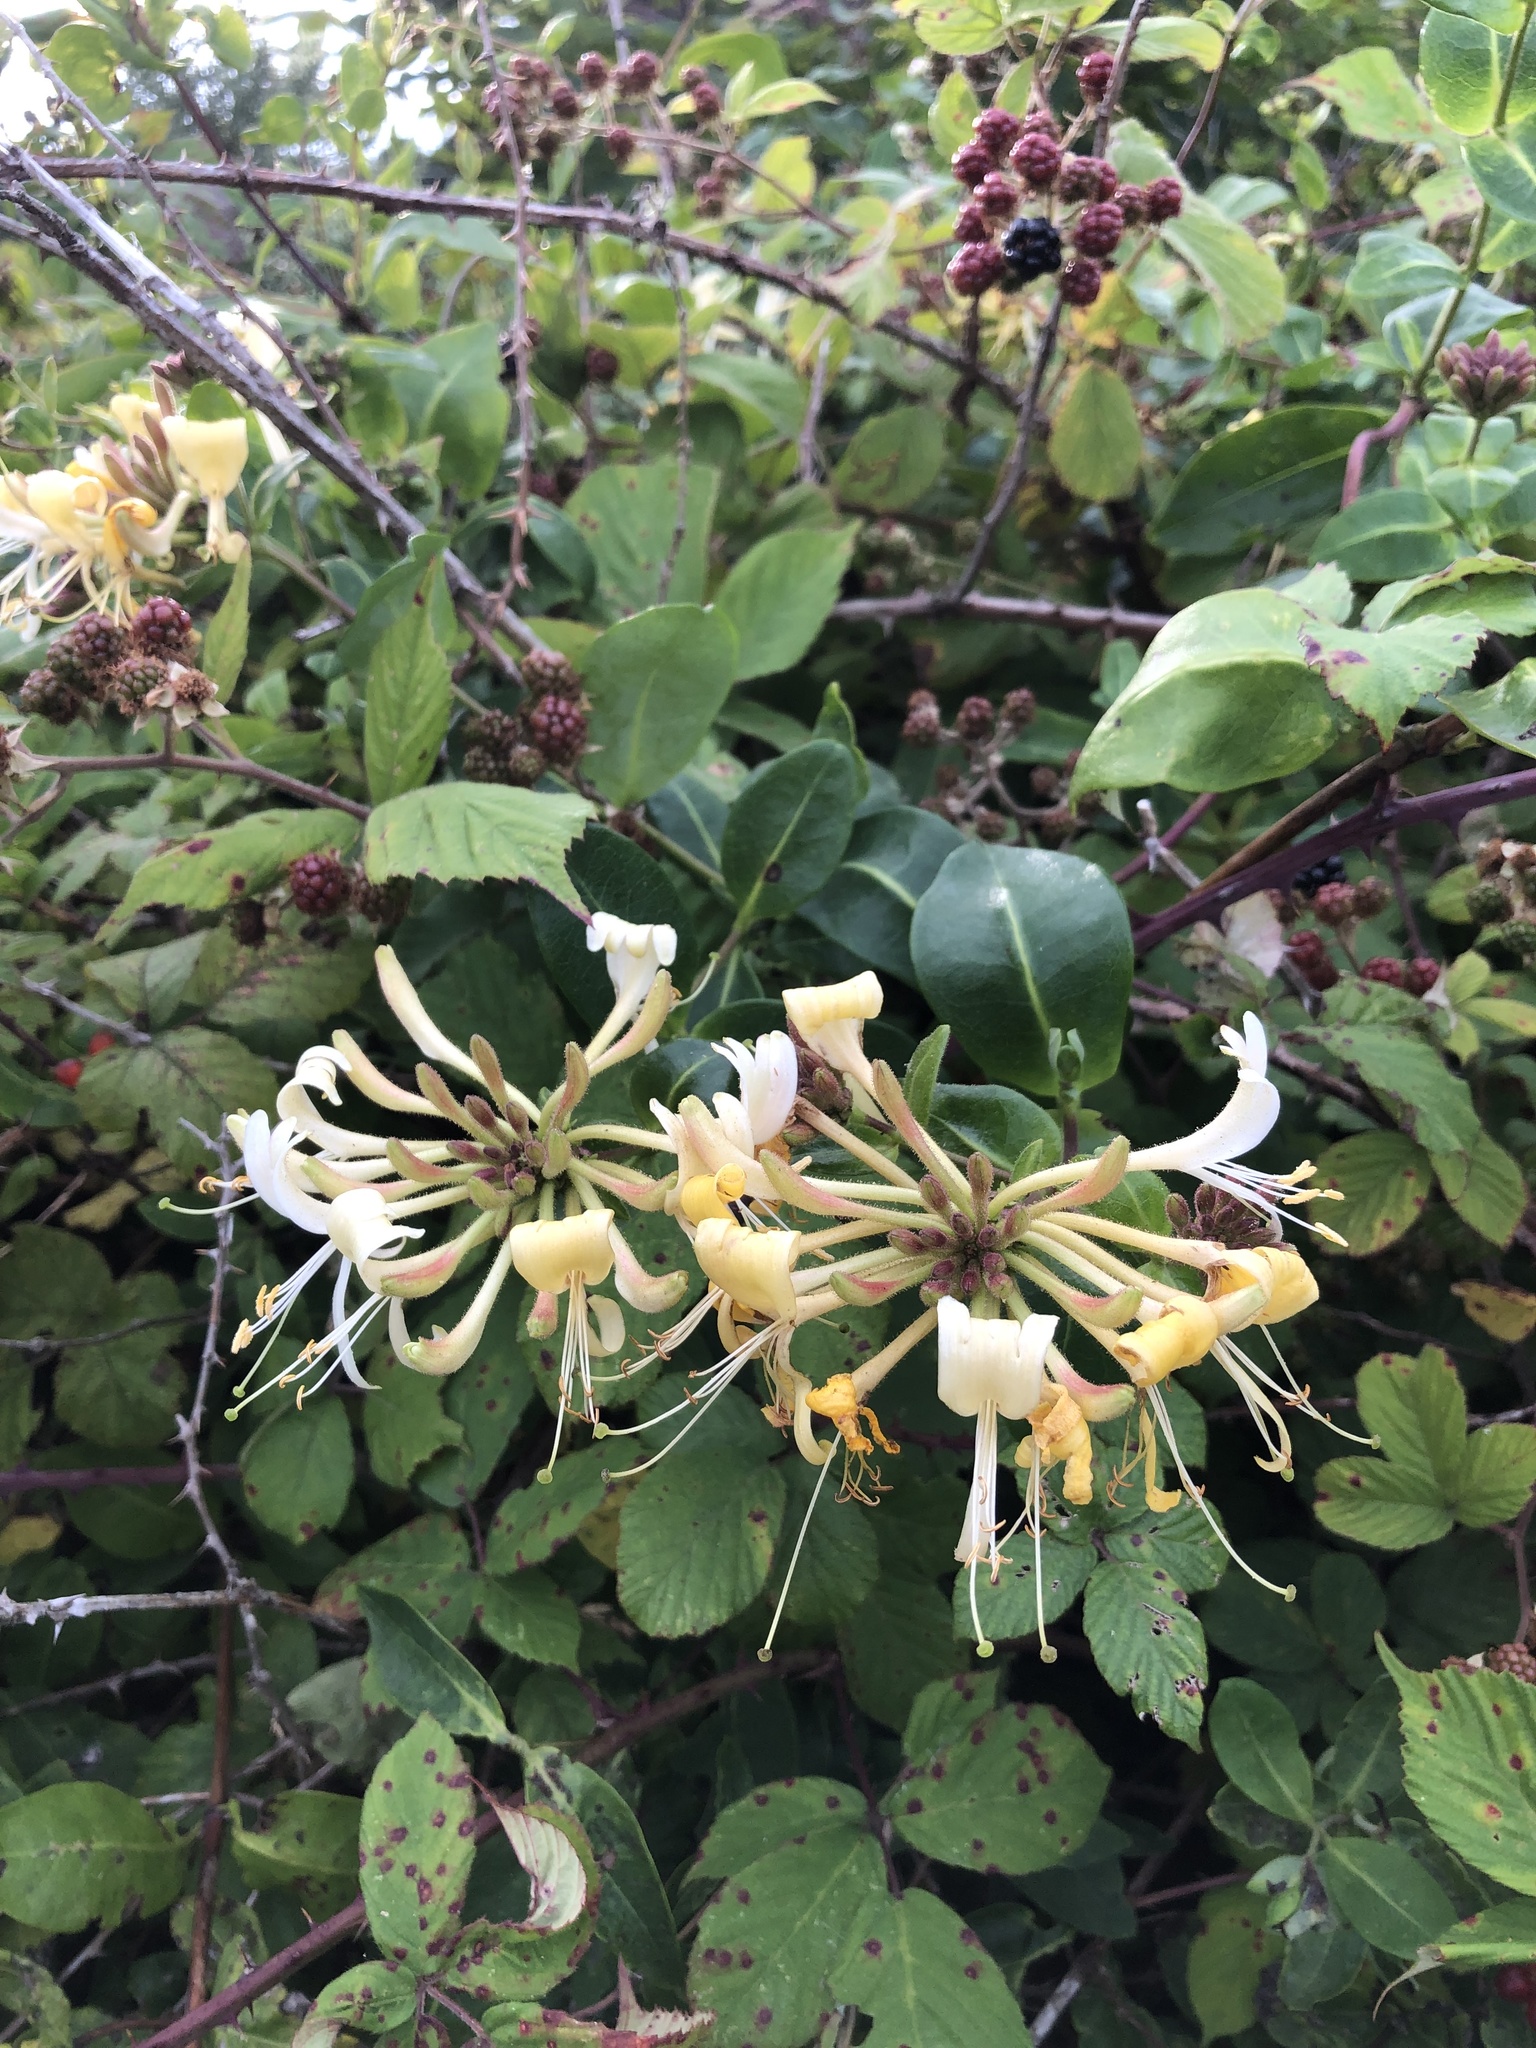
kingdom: Plantae
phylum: Tracheophyta
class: Magnoliopsida
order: Dipsacales
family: Caprifoliaceae
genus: Lonicera
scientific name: Lonicera periclymenum
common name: European honeysuckle
